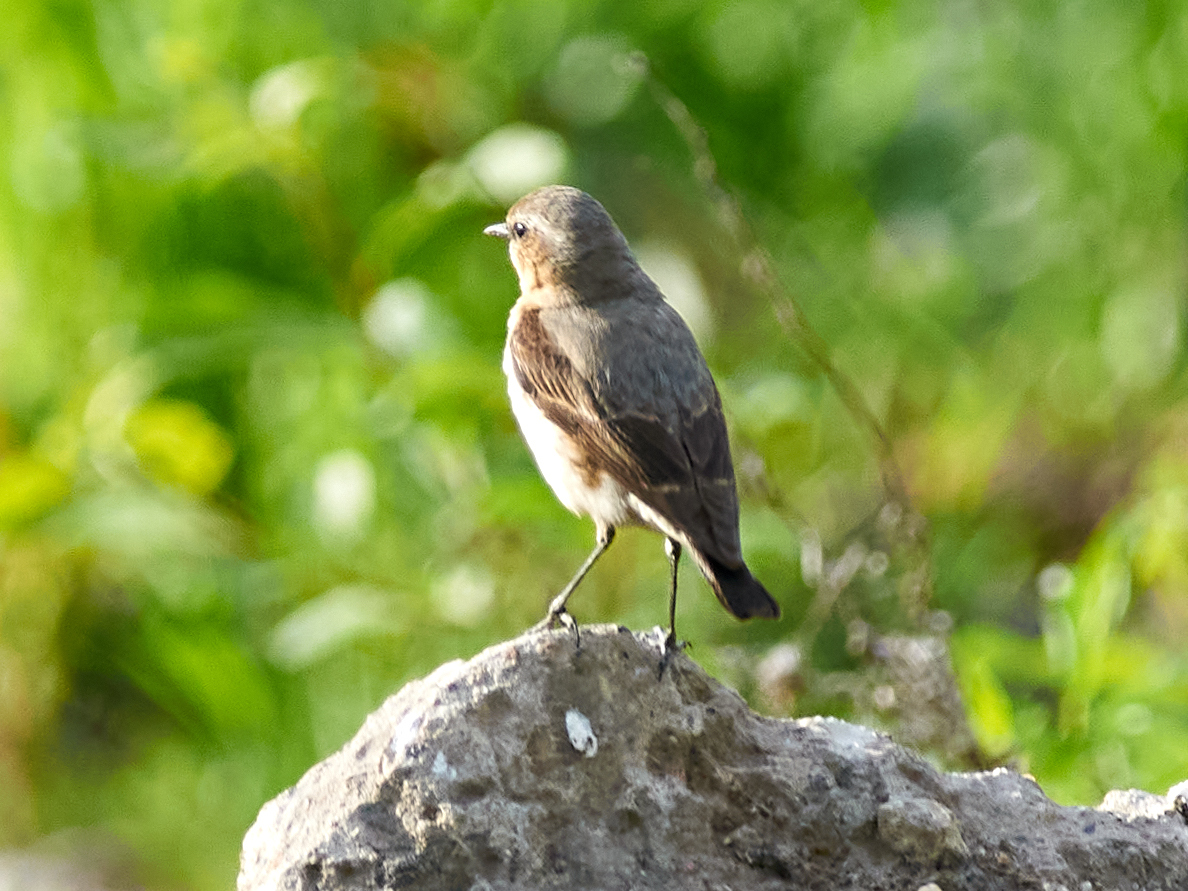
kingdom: Animalia
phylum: Chordata
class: Aves
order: Passeriformes
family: Muscicapidae
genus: Oenanthe
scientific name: Oenanthe oenanthe
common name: Northern wheatear
